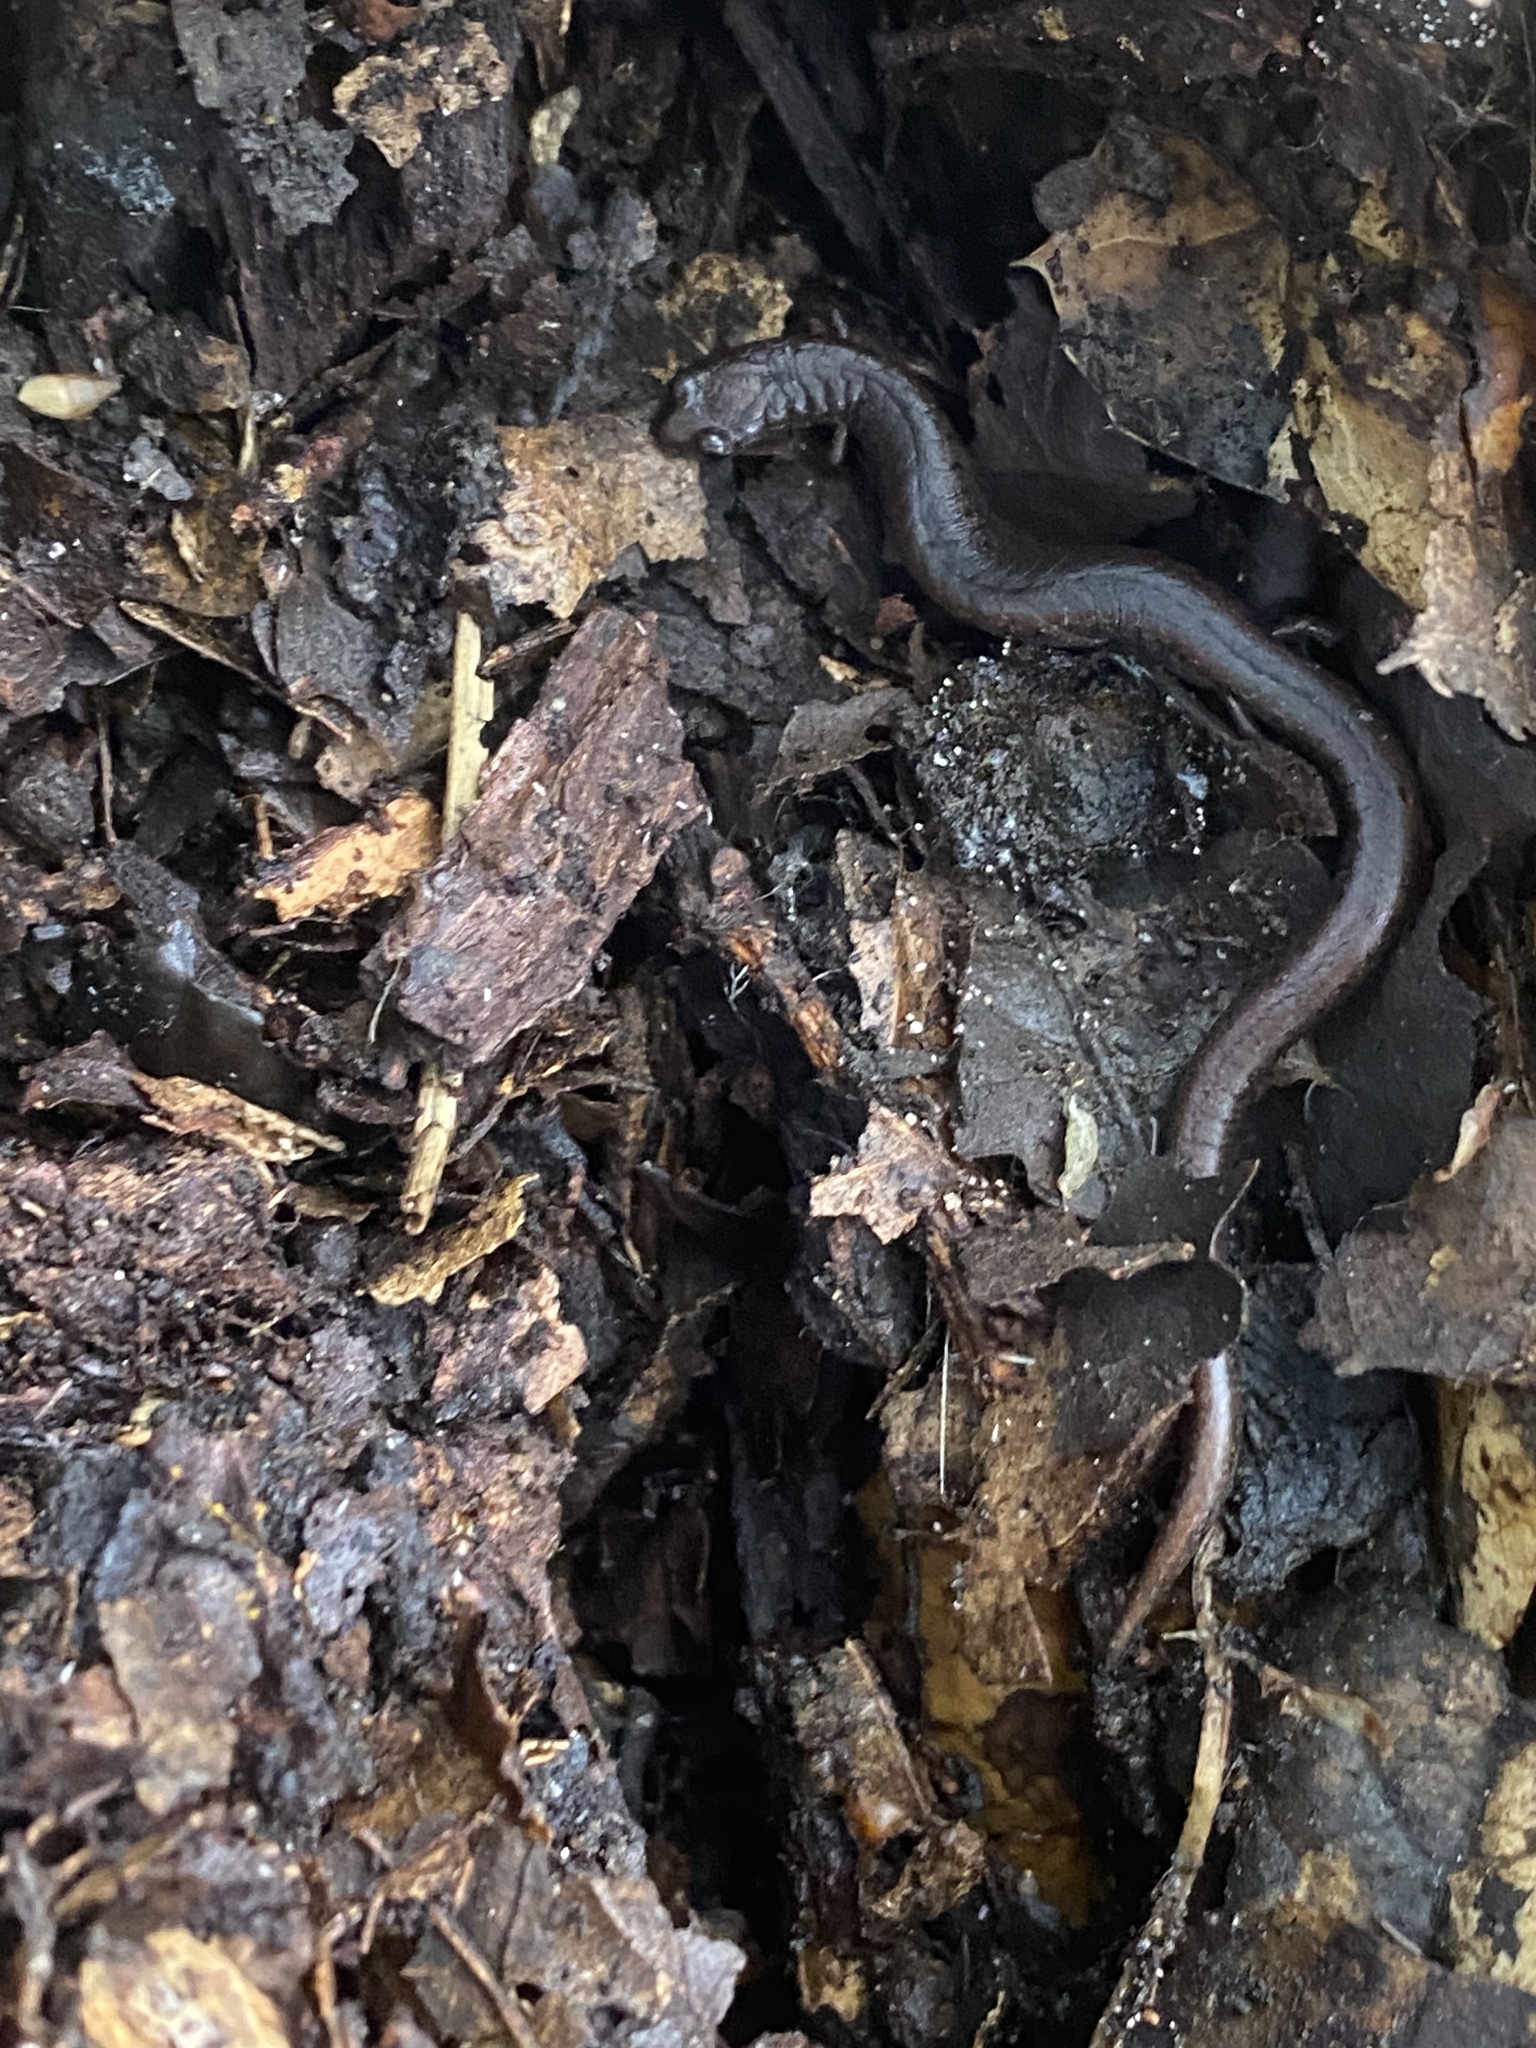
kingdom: Animalia
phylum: Chordata
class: Amphibia
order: Caudata
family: Plethodontidae
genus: Batrachoseps
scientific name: Batrachoseps attenuatus
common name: California slender salamander
